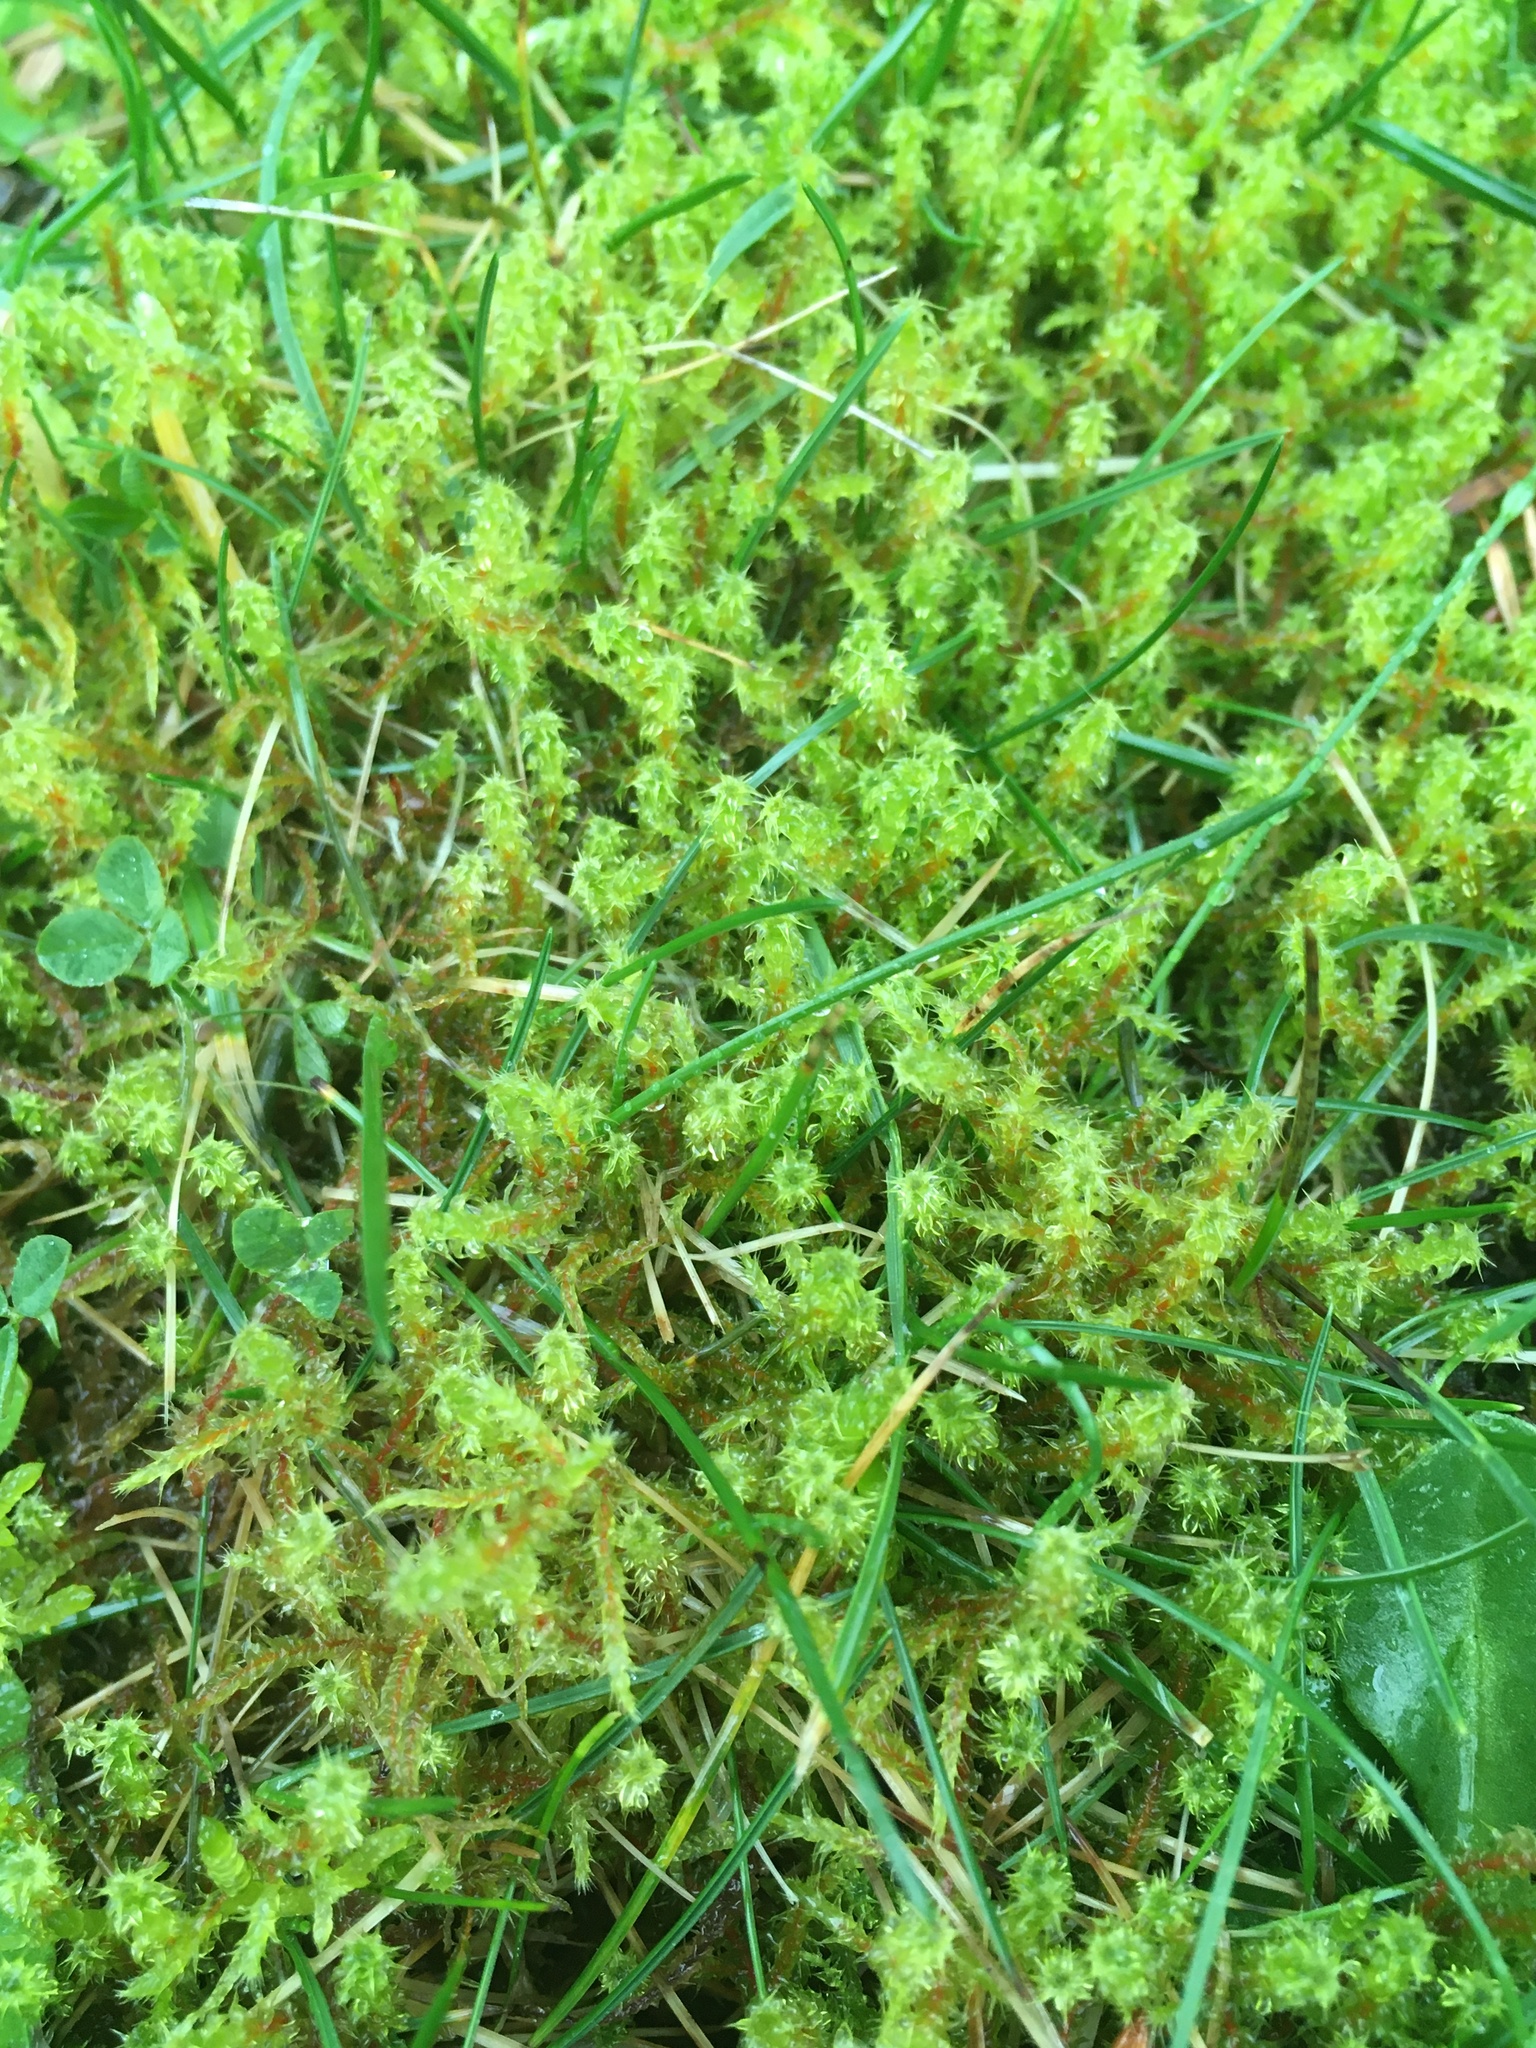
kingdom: Plantae
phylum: Bryophyta
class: Bryopsida
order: Hypnales
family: Hylocomiaceae
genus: Rhytidiadelphus
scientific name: Rhytidiadelphus squarrosus
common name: Springy turf-moss
